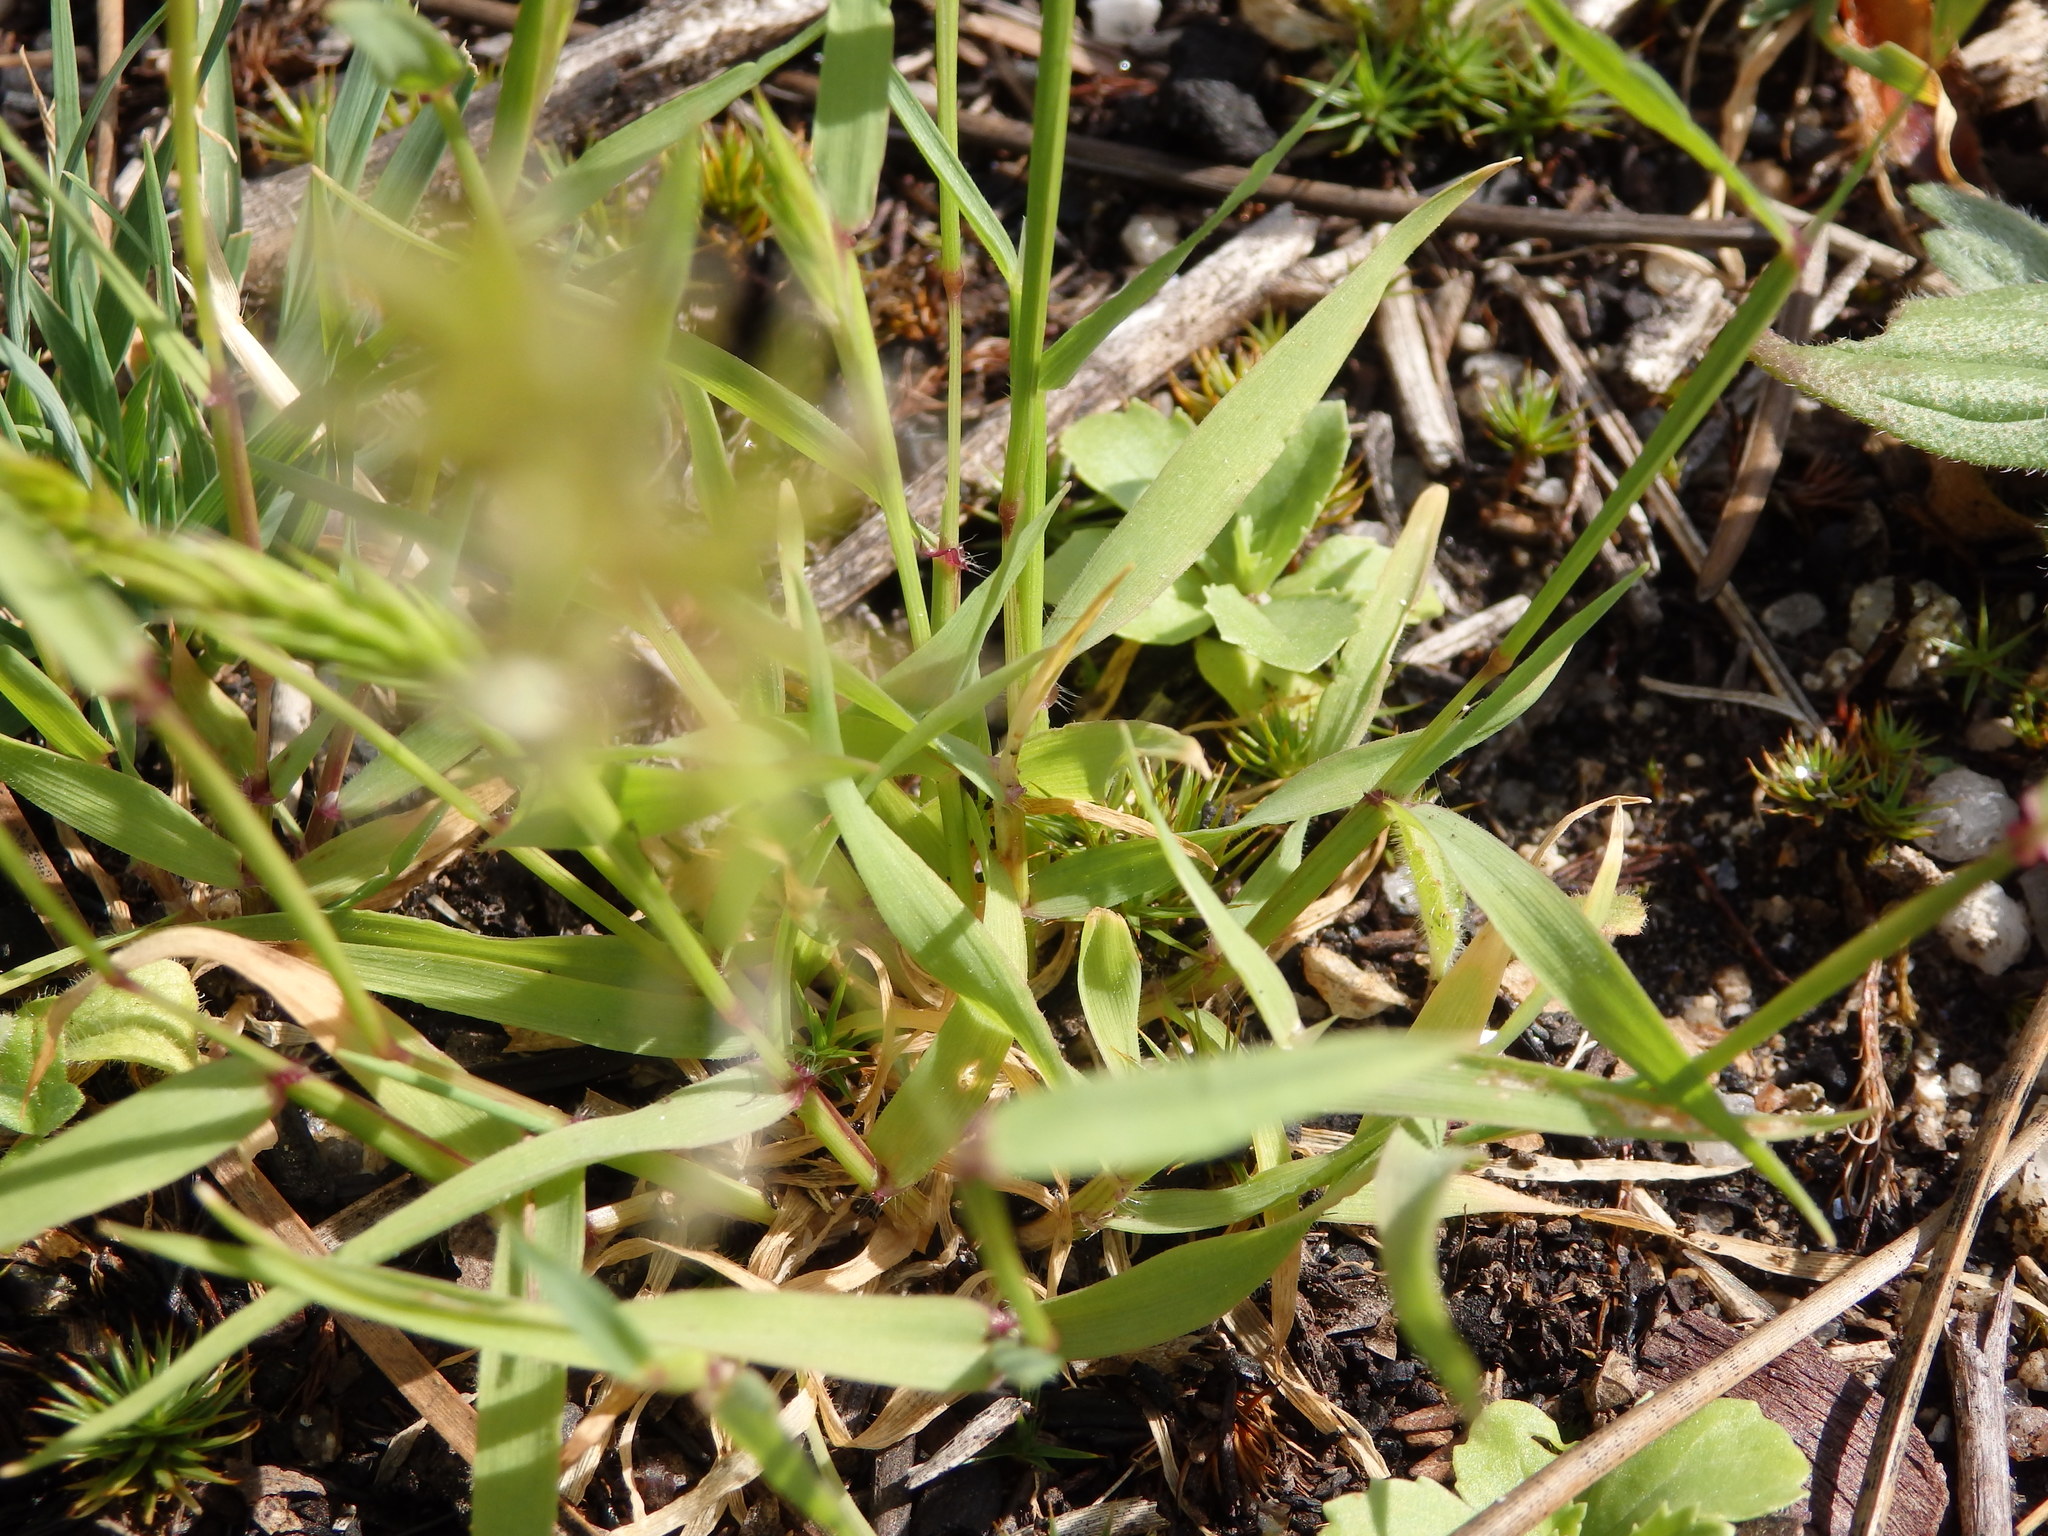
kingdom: Plantae
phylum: Tracheophyta
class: Liliopsida
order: Poales
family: Poaceae
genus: Anthoxanthum
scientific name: Anthoxanthum odoratum
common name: Sweet vernalgrass
